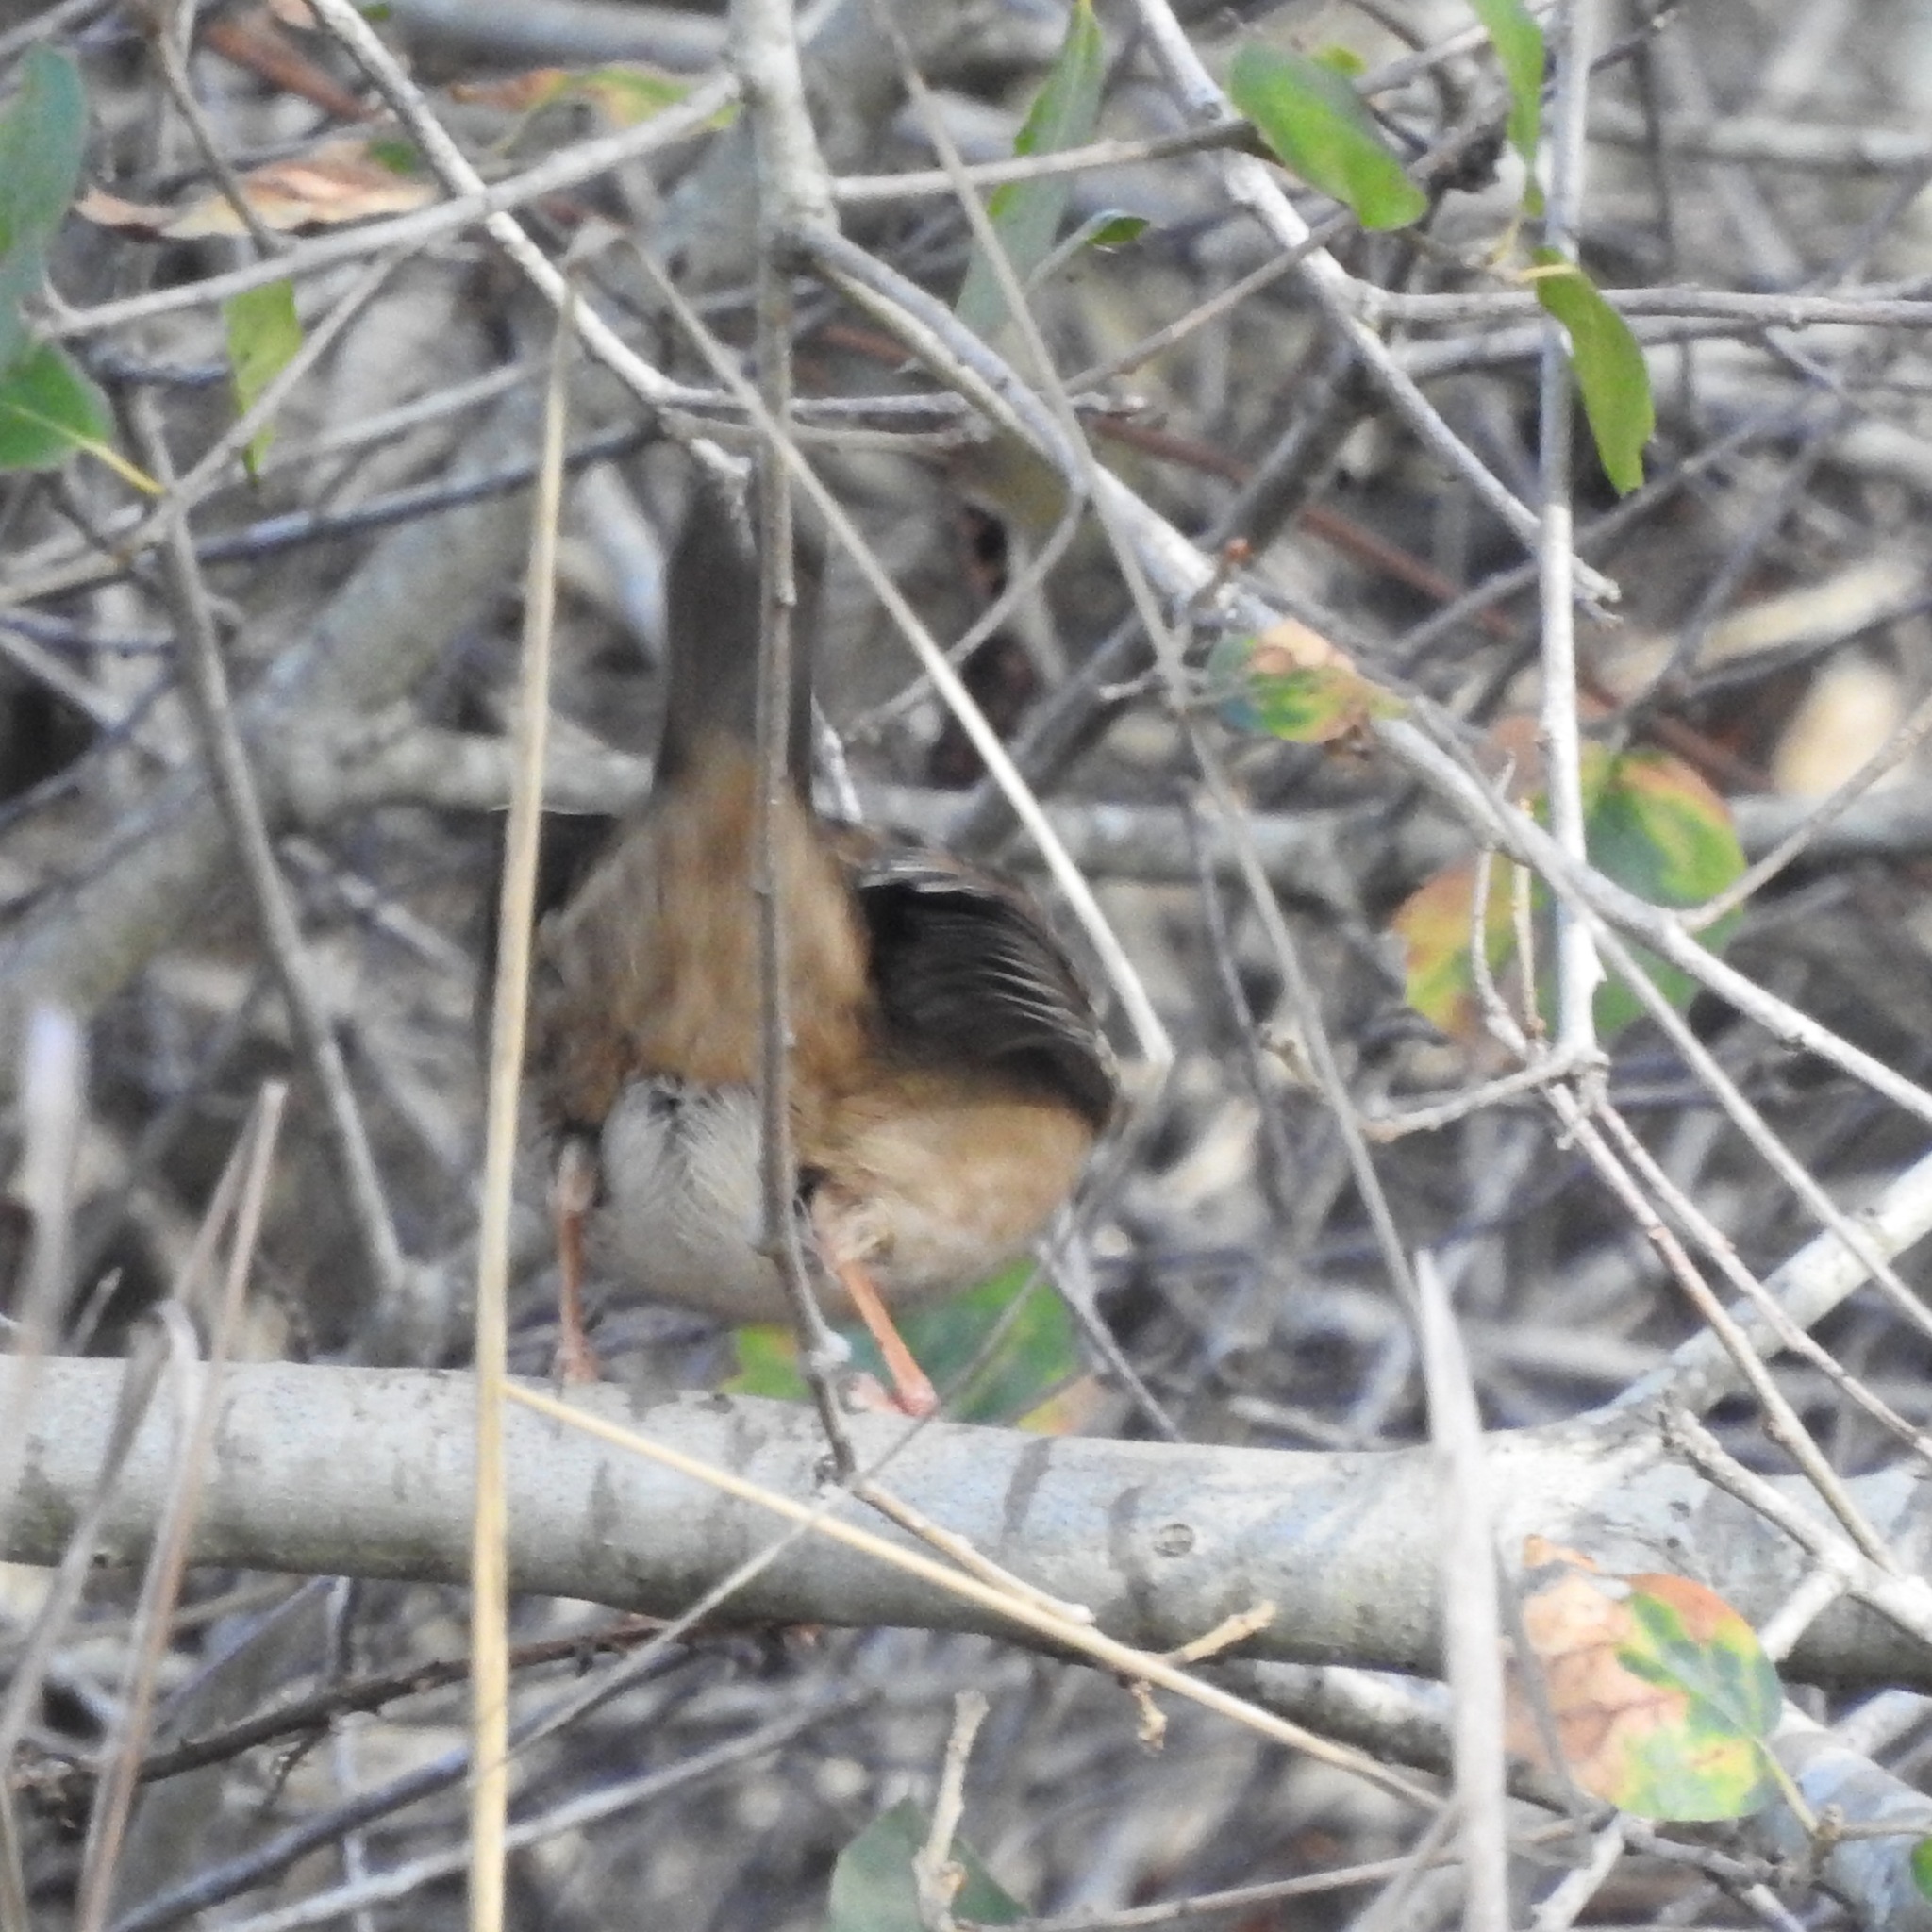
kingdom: Animalia
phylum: Chordata
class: Aves
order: Passeriformes
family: Passerellidae
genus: Zonotrichia
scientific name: Zonotrichia atricapilla
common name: Golden-crowned sparrow
